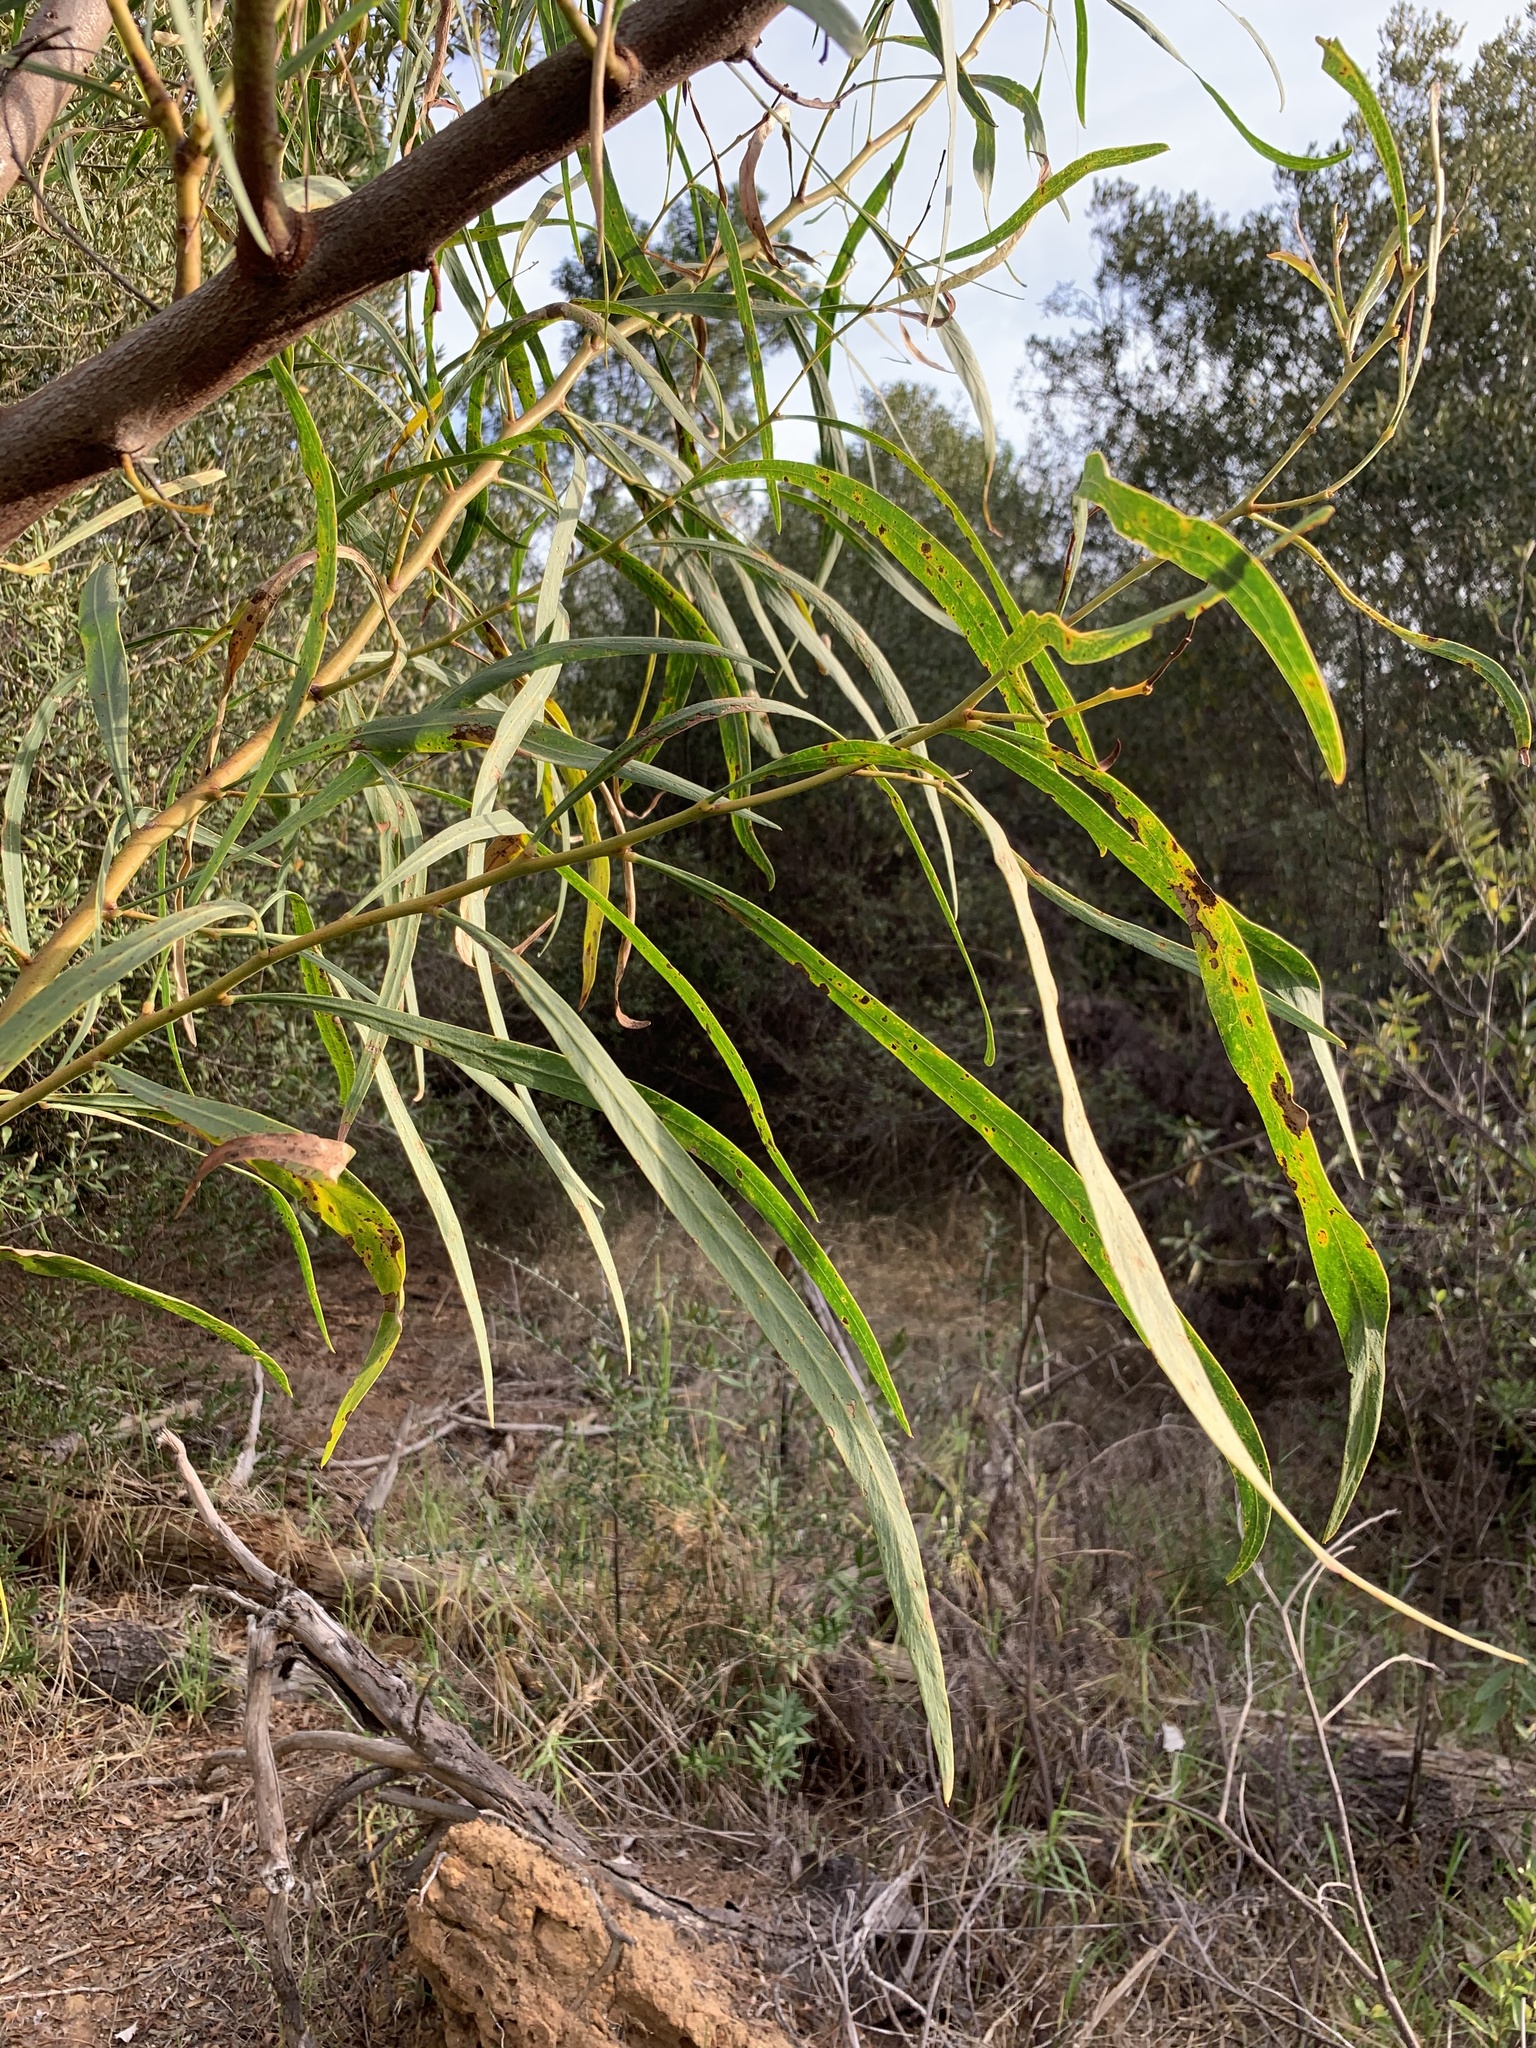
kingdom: Plantae
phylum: Tracheophyta
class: Magnoliopsida
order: Fabales
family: Fabaceae
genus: Acacia
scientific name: Acacia saligna
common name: Orange wattle
